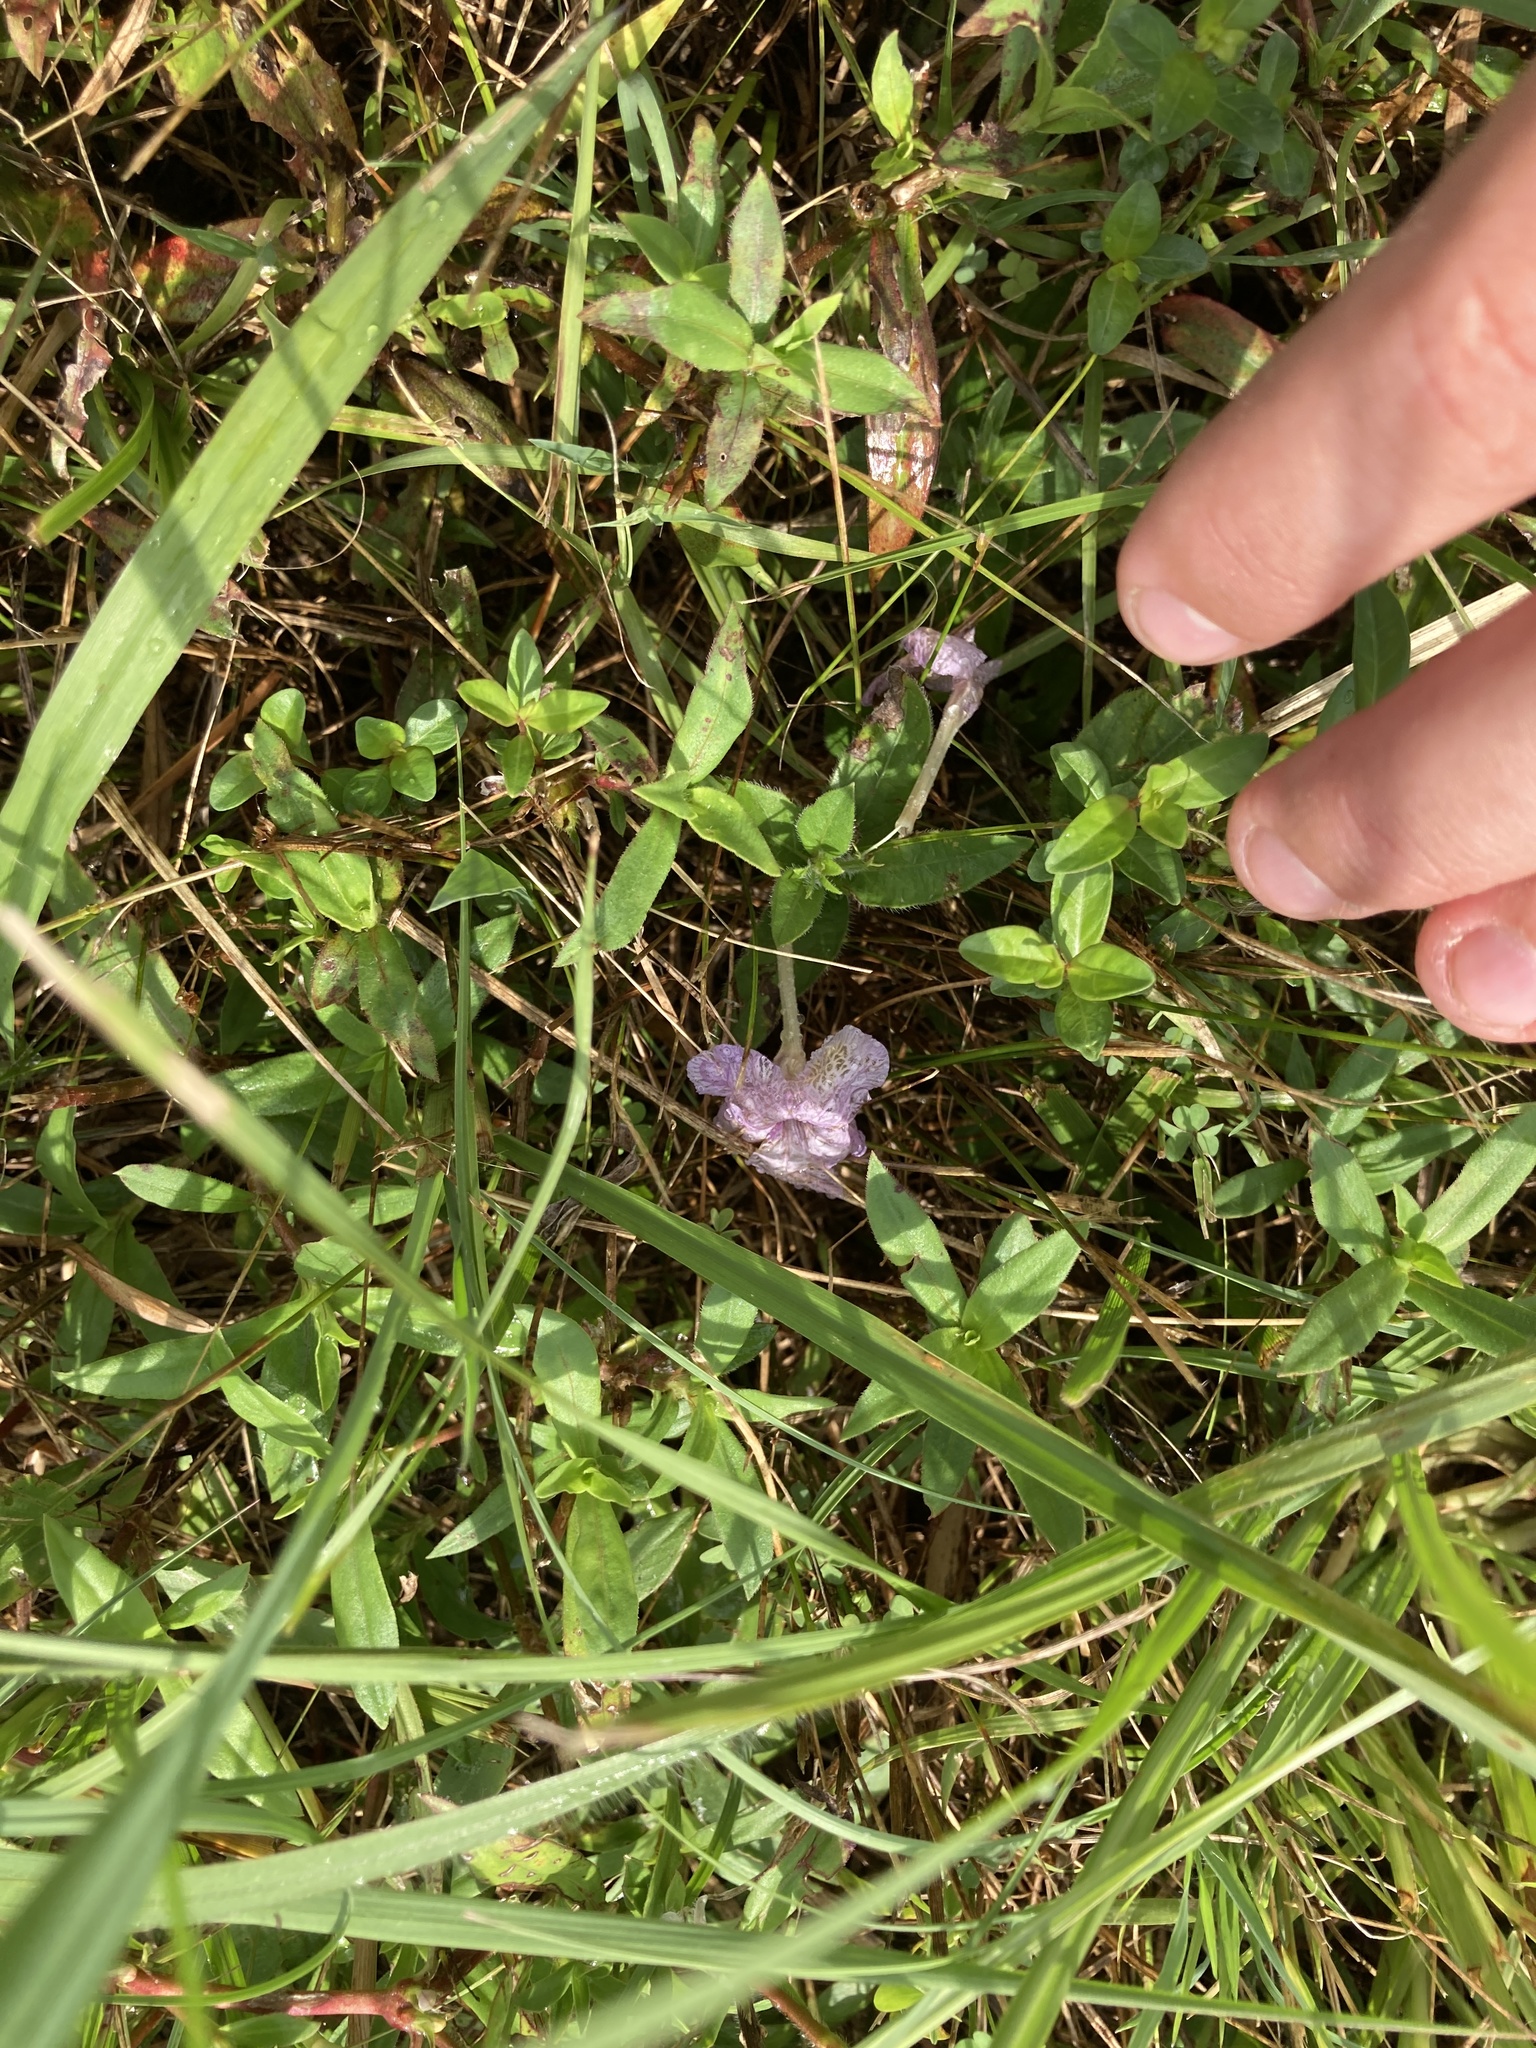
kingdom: Plantae
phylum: Tracheophyta
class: Magnoliopsida
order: Lamiales
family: Acanthaceae
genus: Ruellia
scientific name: Ruellia humilis
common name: Fringe-leaf ruellia
